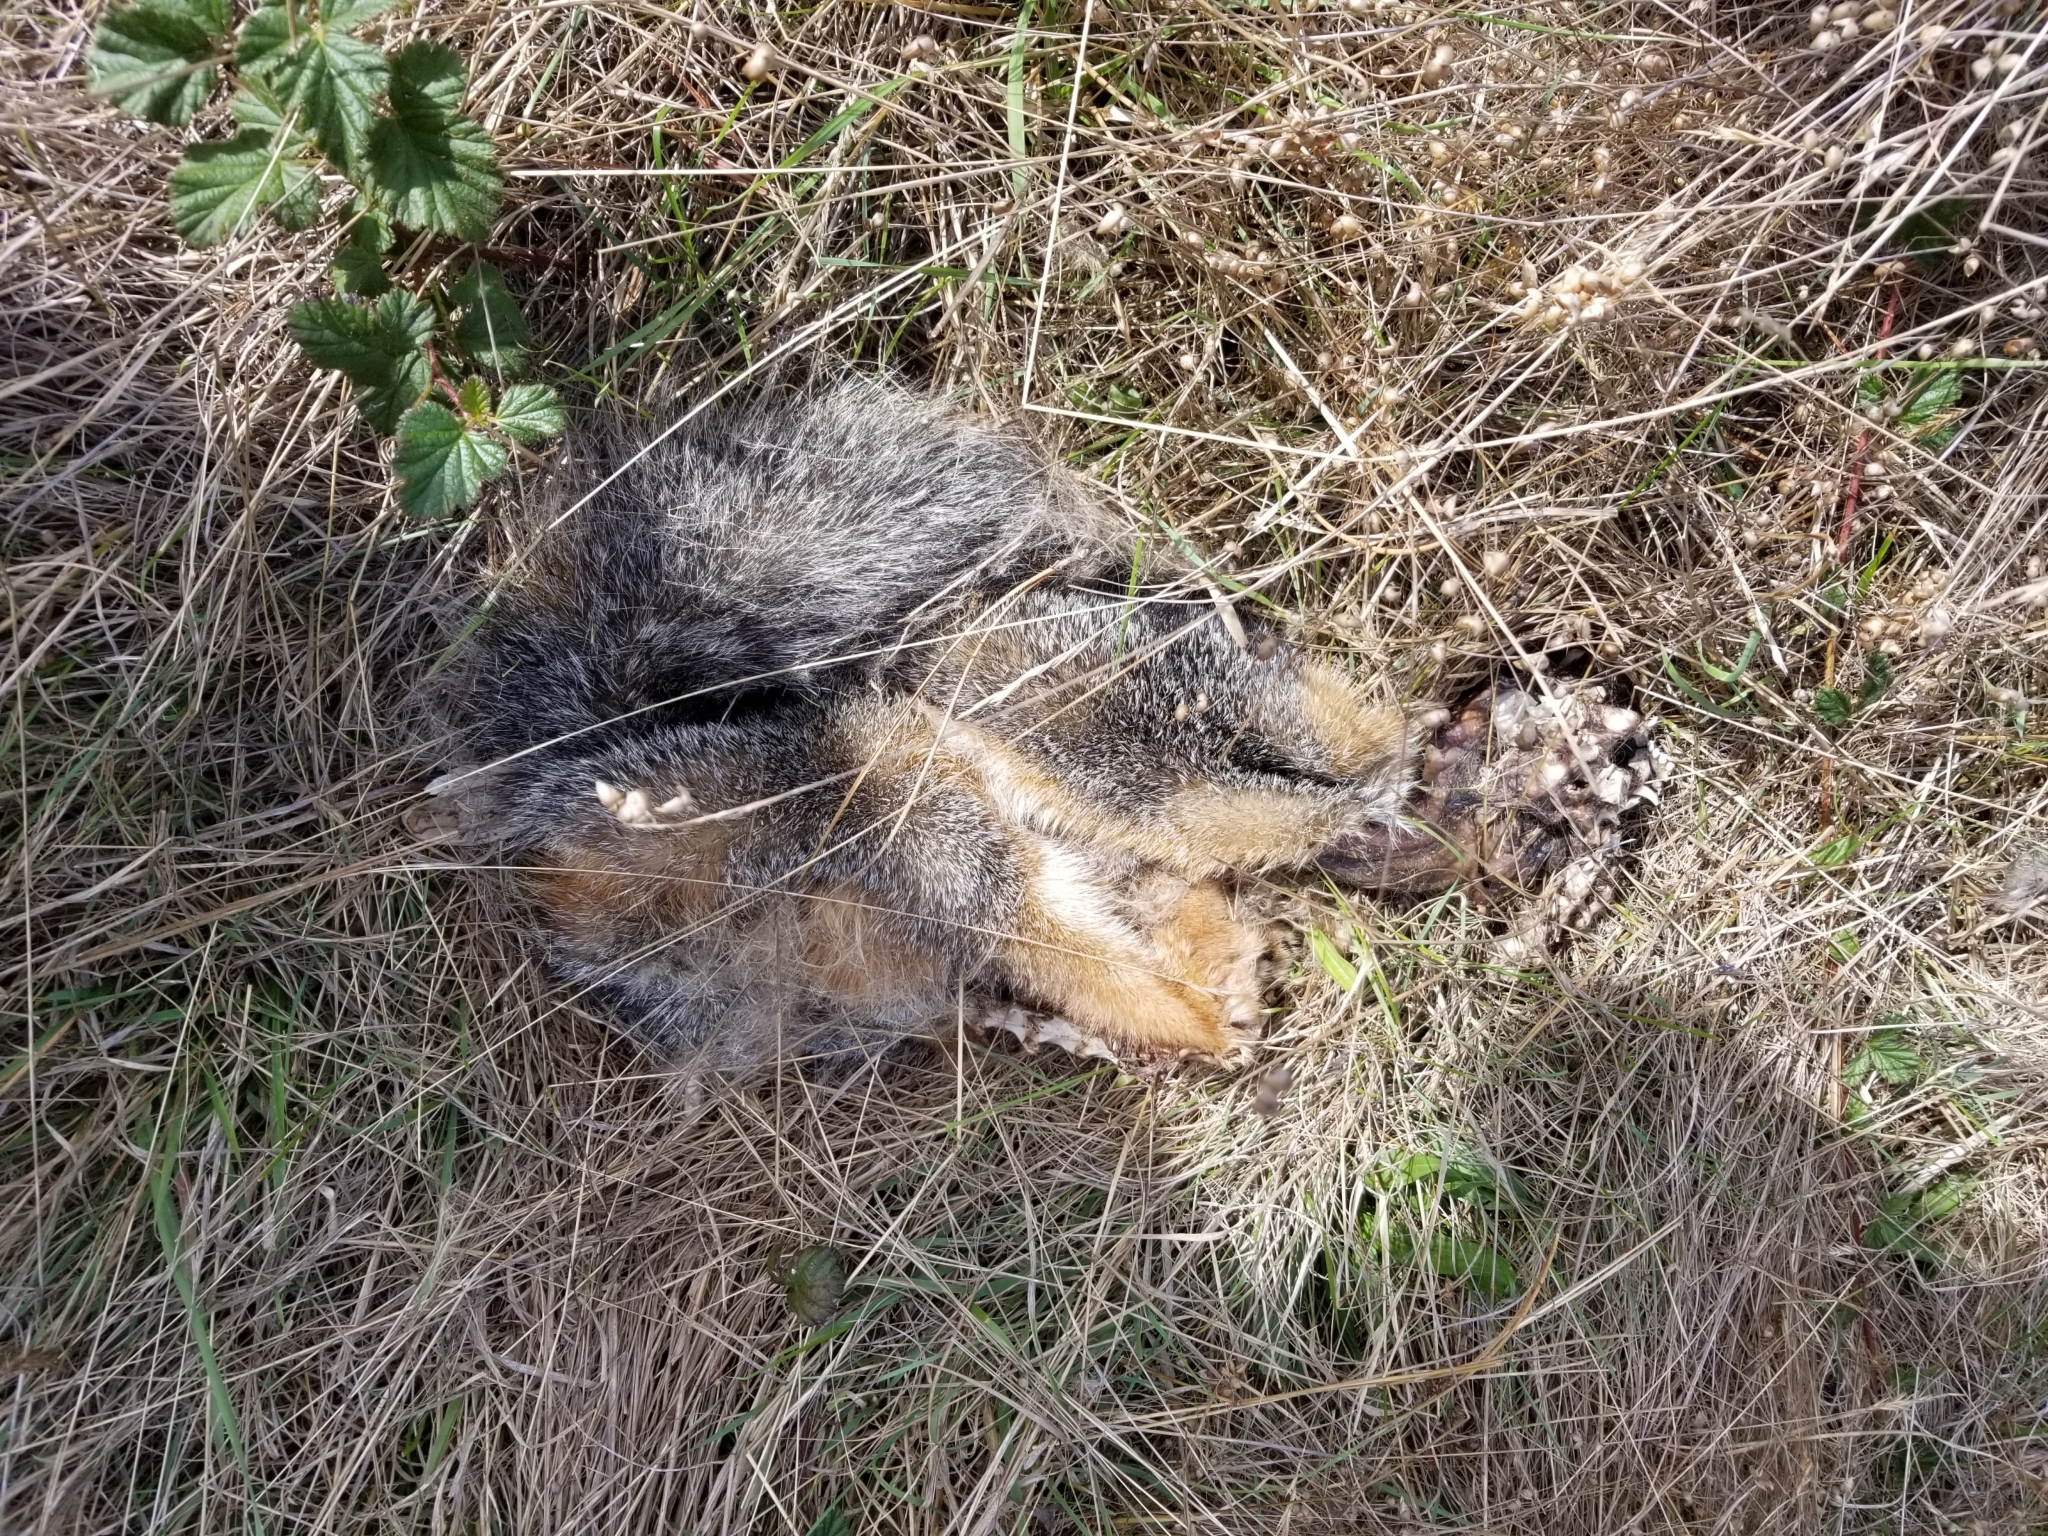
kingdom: Animalia
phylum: Chordata
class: Mammalia
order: Carnivora
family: Canidae
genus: Urocyon
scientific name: Urocyon cinereoargenteus
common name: Gray fox
